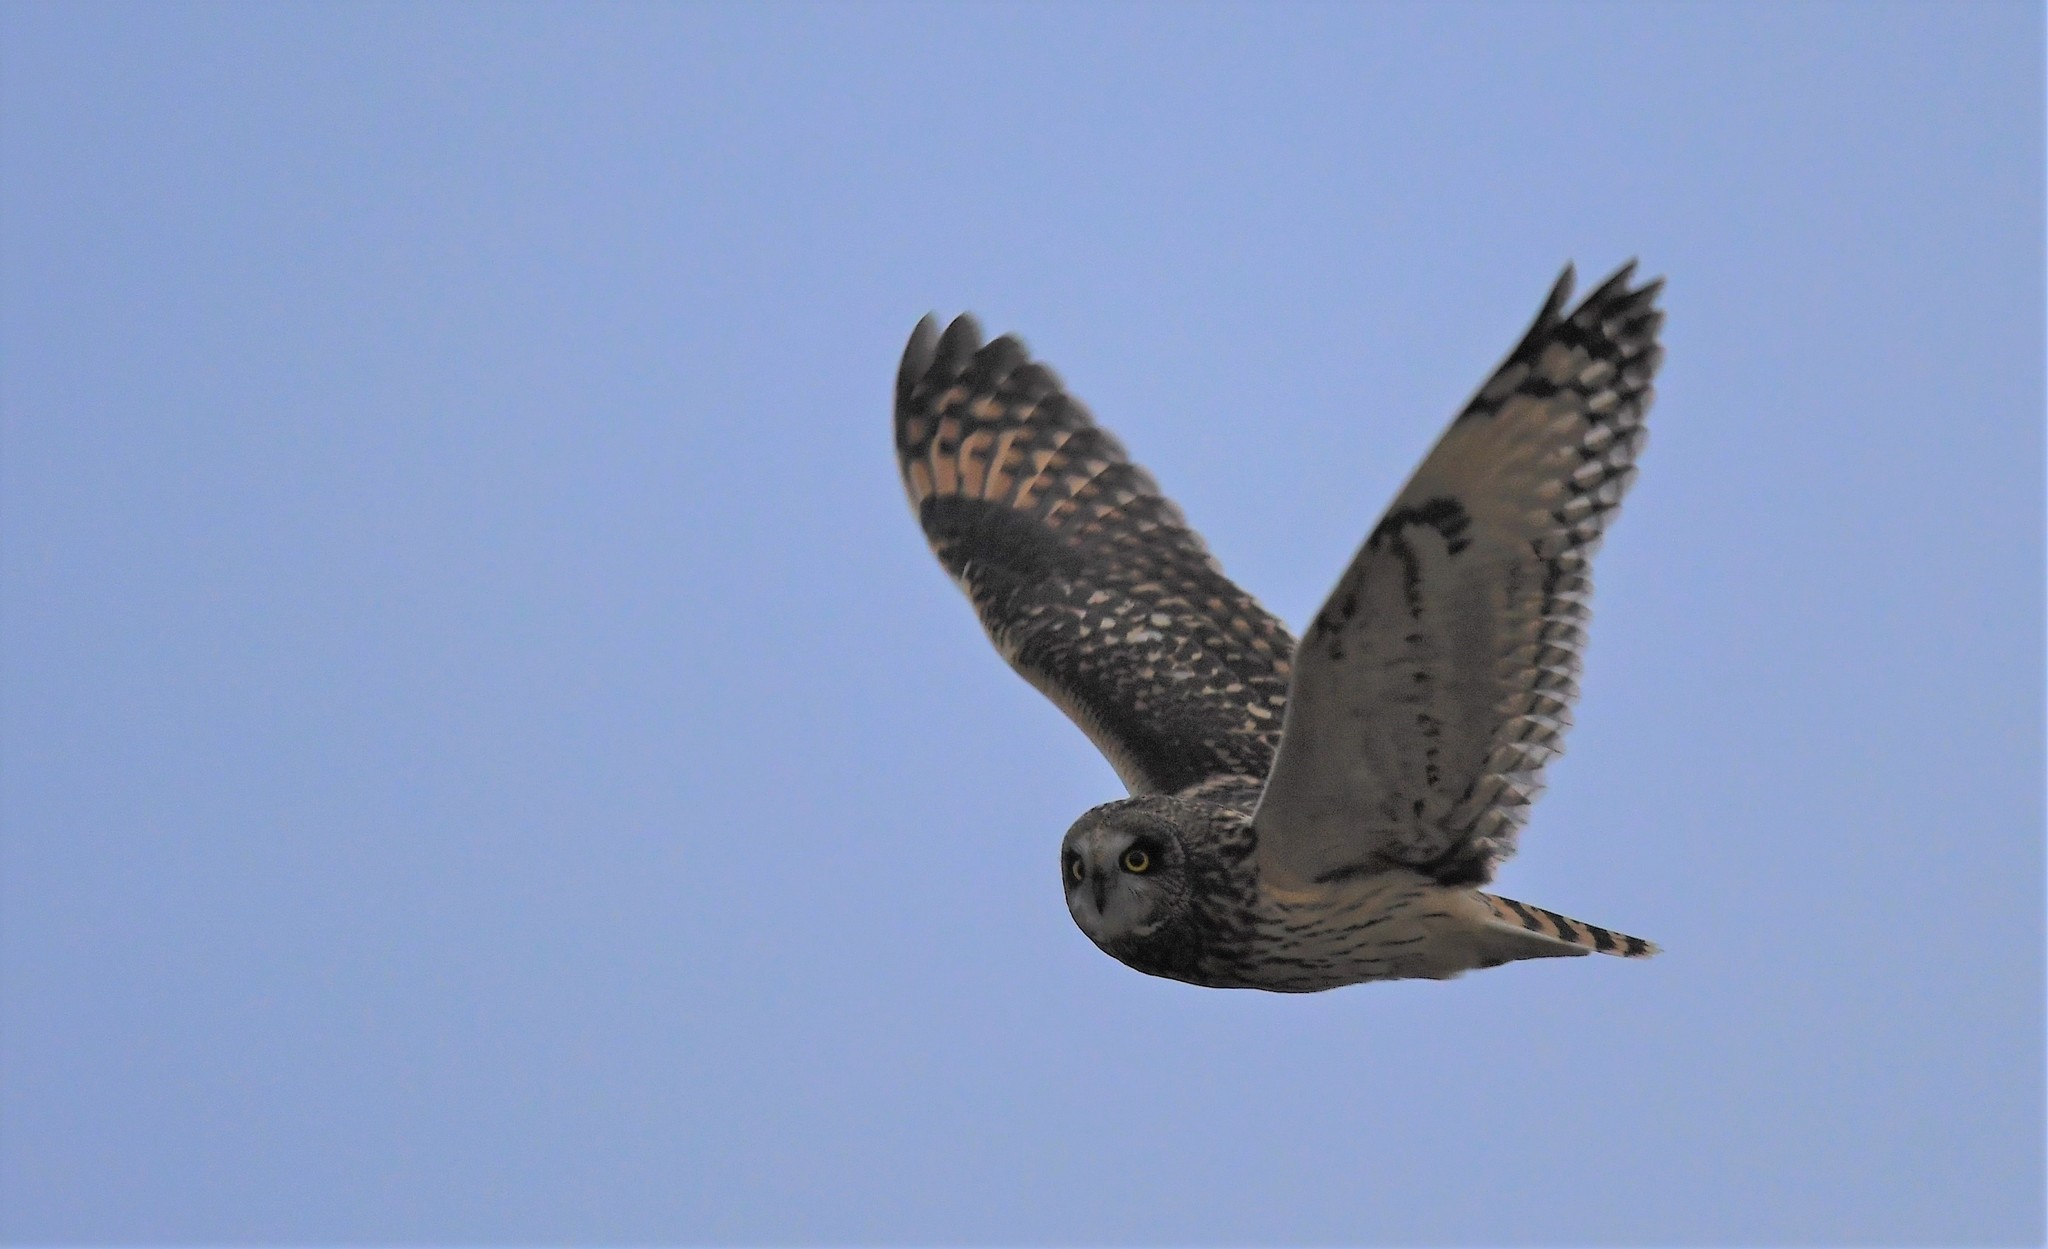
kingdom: Animalia
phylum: Chordata
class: Aves
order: Strigiformes
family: Strigidae
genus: Asio
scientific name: Asio flammeus
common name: Short-eared owl
